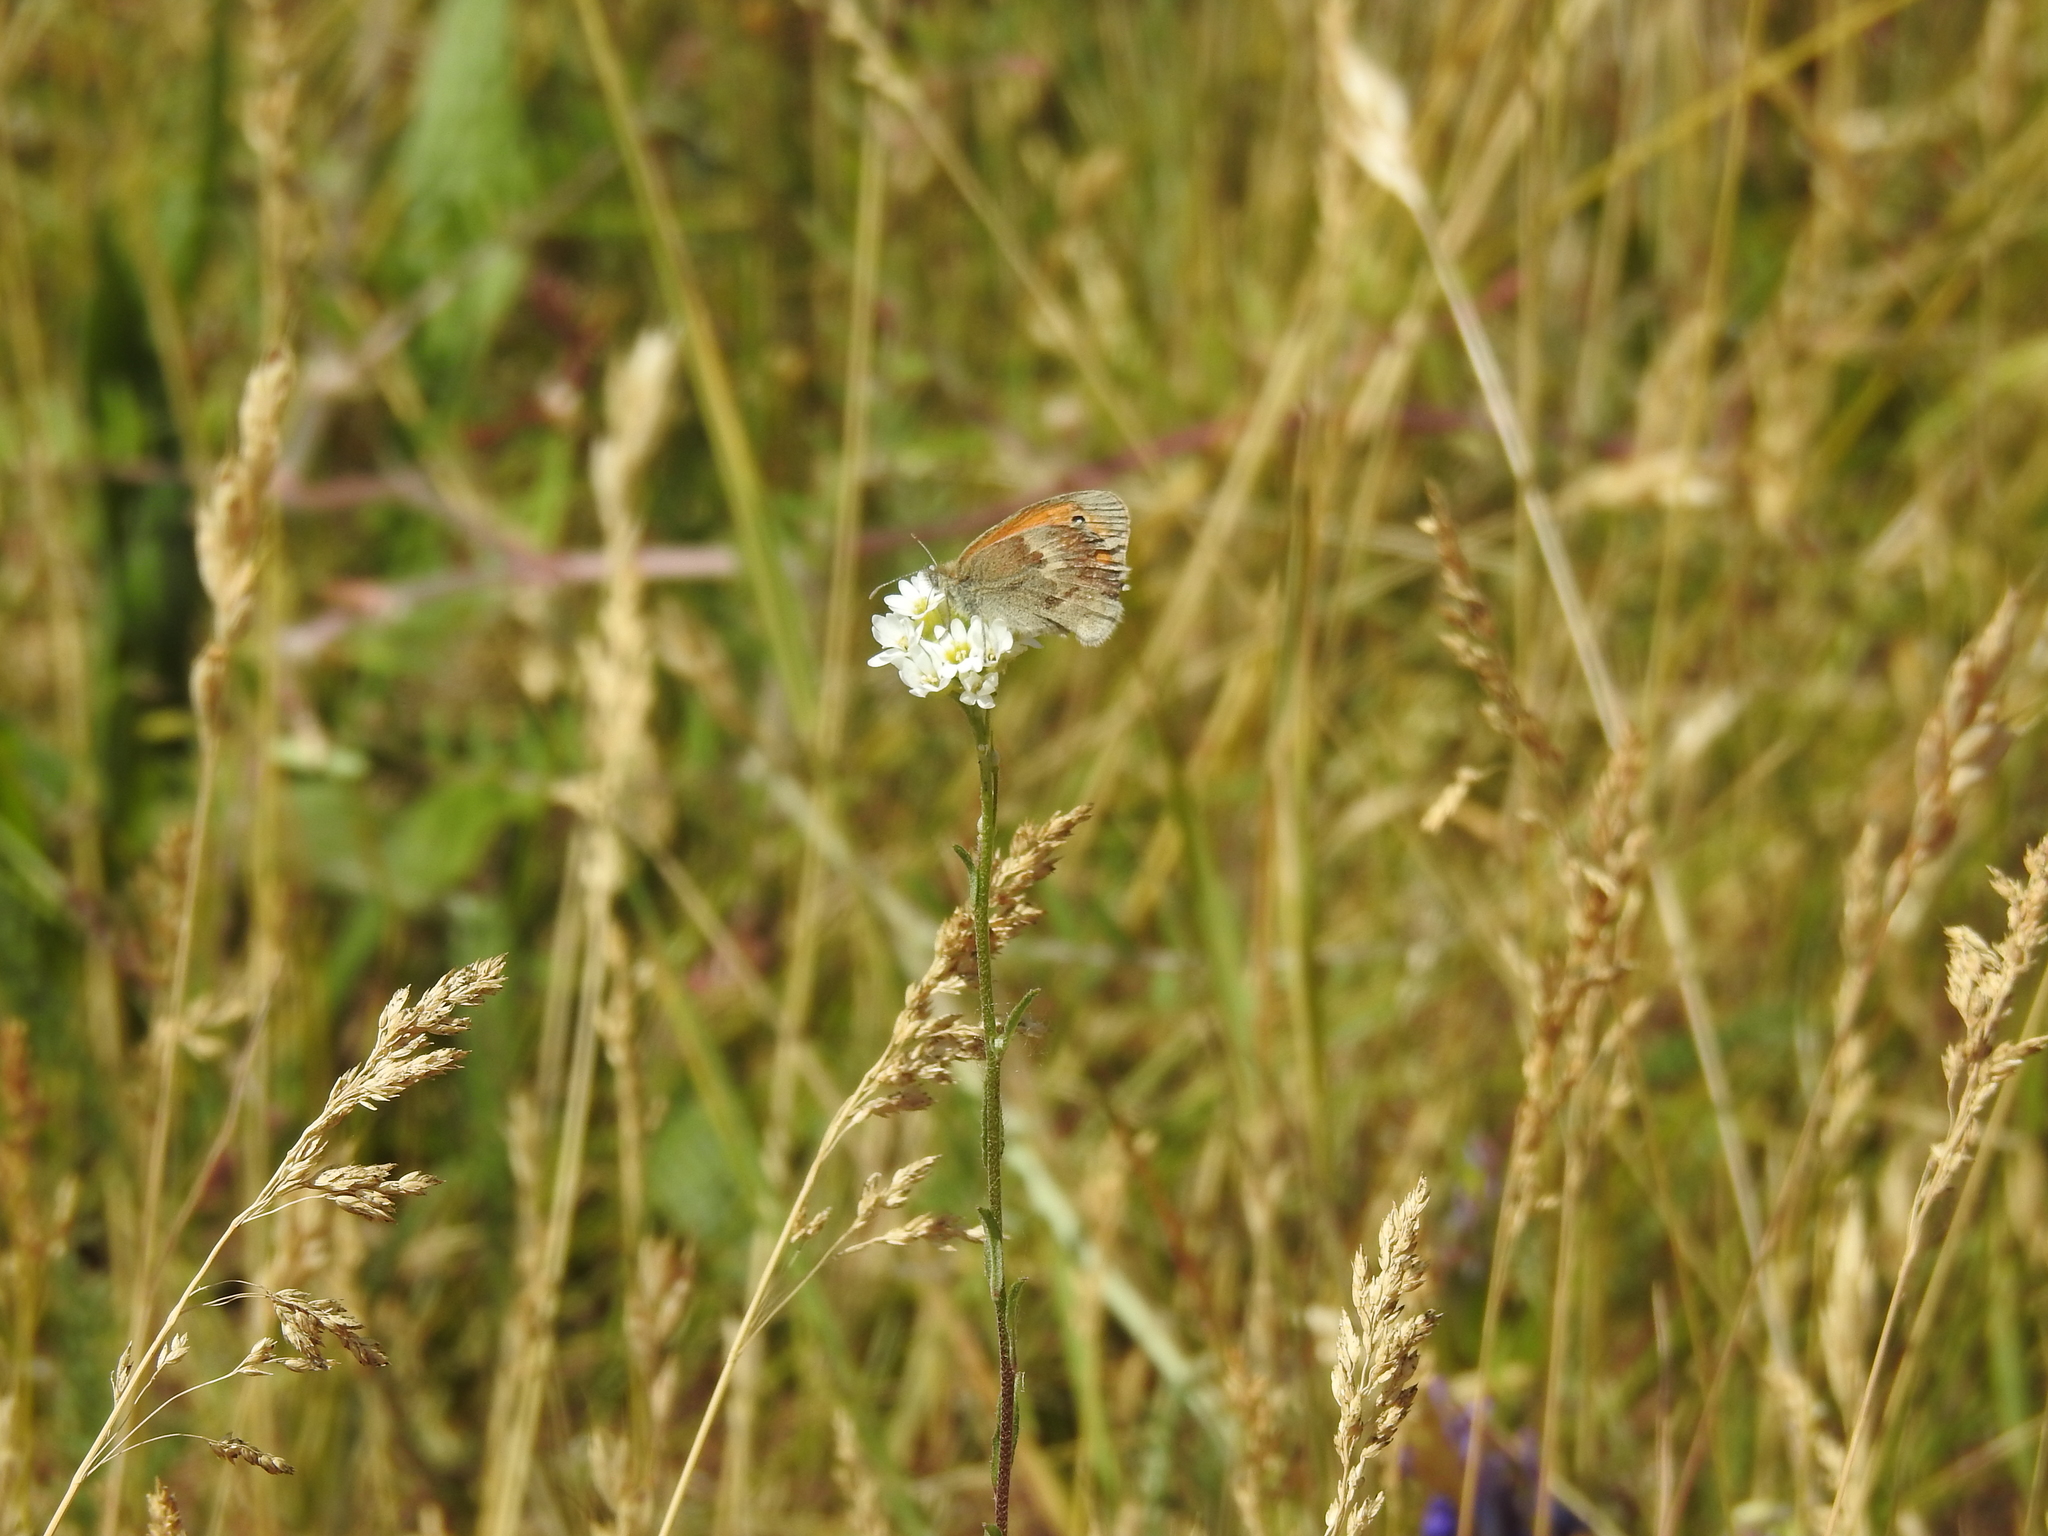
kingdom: Animalia
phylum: Arthropoda
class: Insecta
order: Lepidoptera
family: Nymphalidae
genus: Coenonympha
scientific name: Coenonympha pamphilus
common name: Small heath
